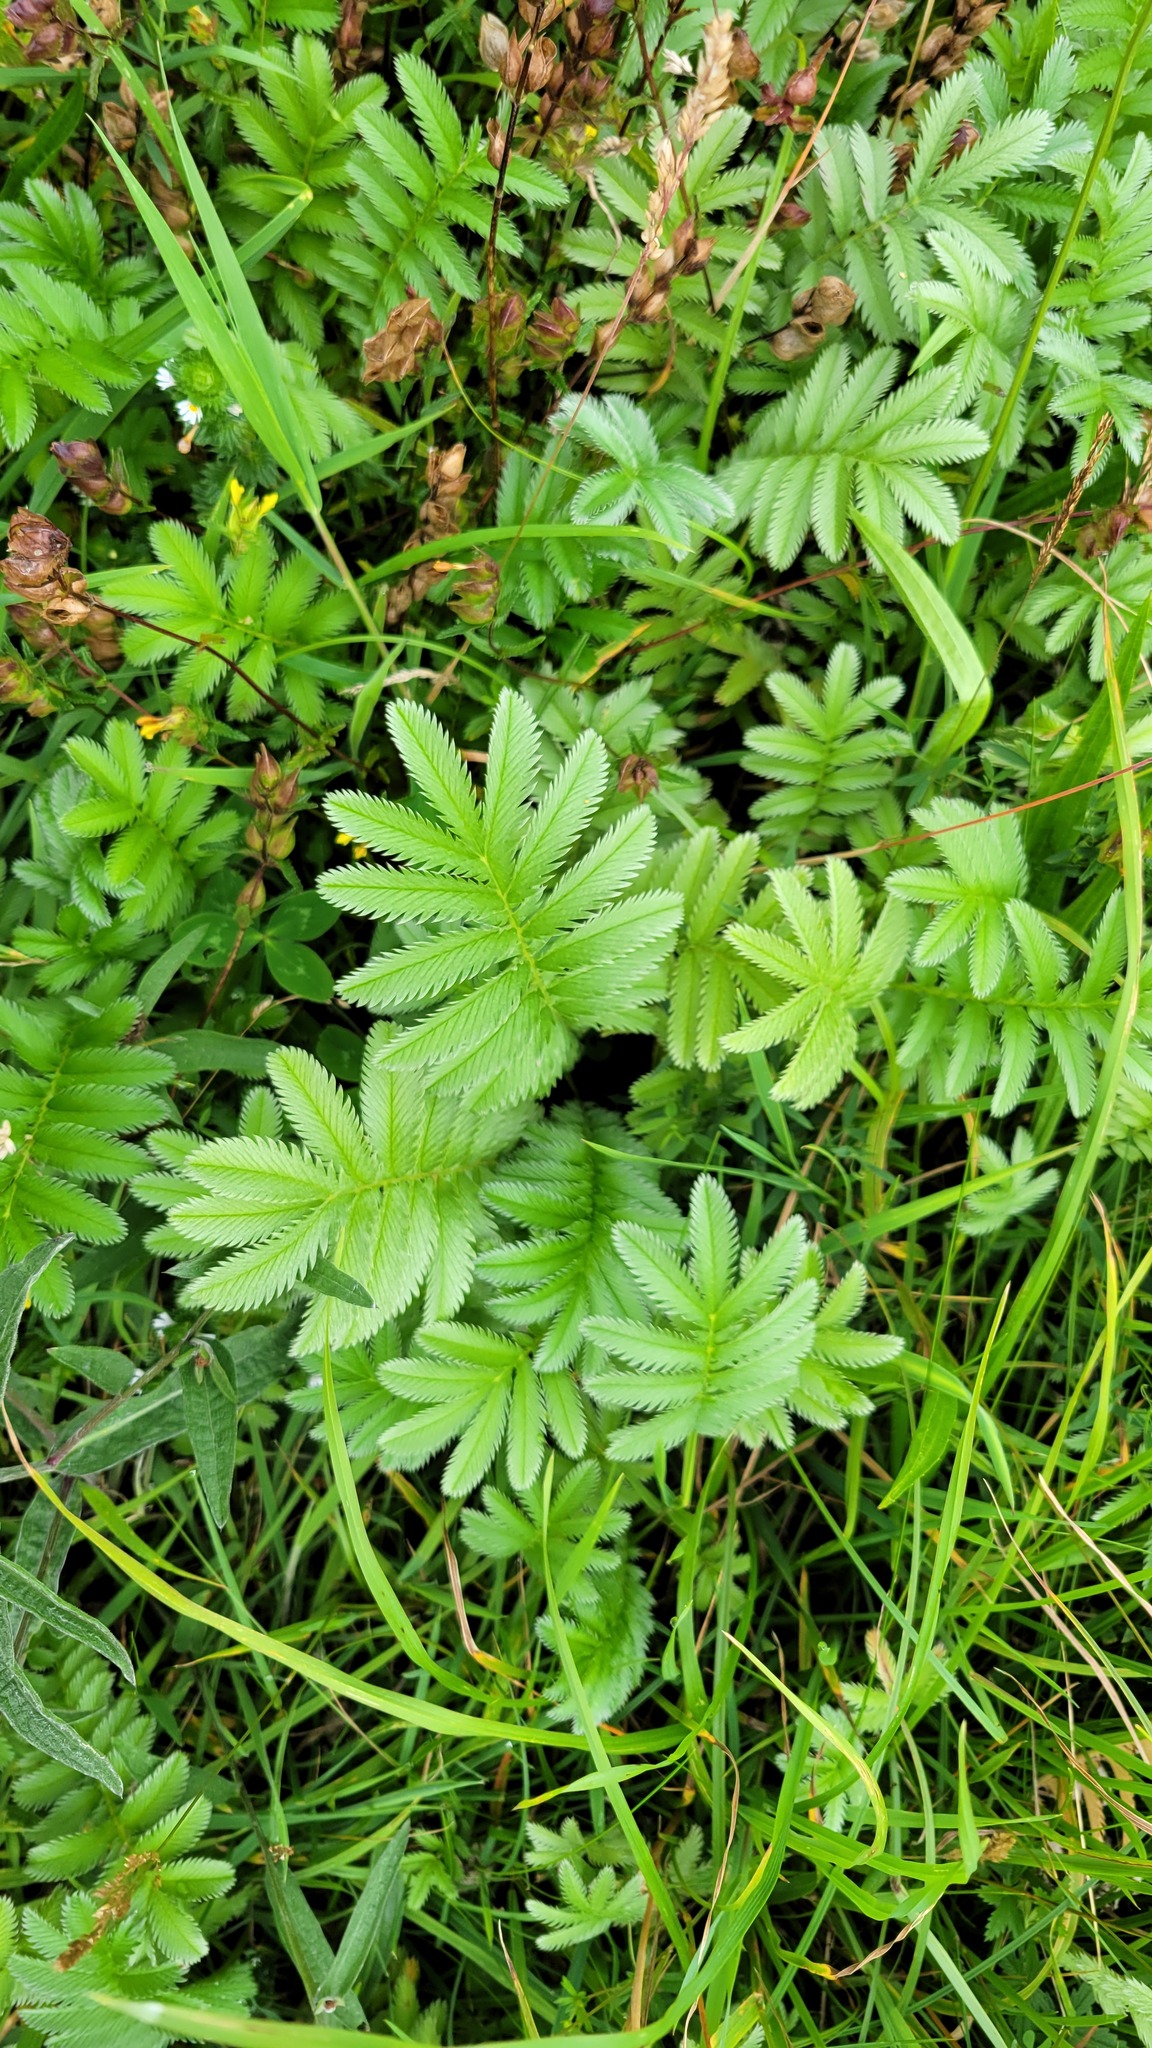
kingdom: Plantae
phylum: Tracheophyta
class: Magnoliopsida
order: Rosales
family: Rosaceae
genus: Argentina
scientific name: Argentina anserina
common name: Common silverweed
